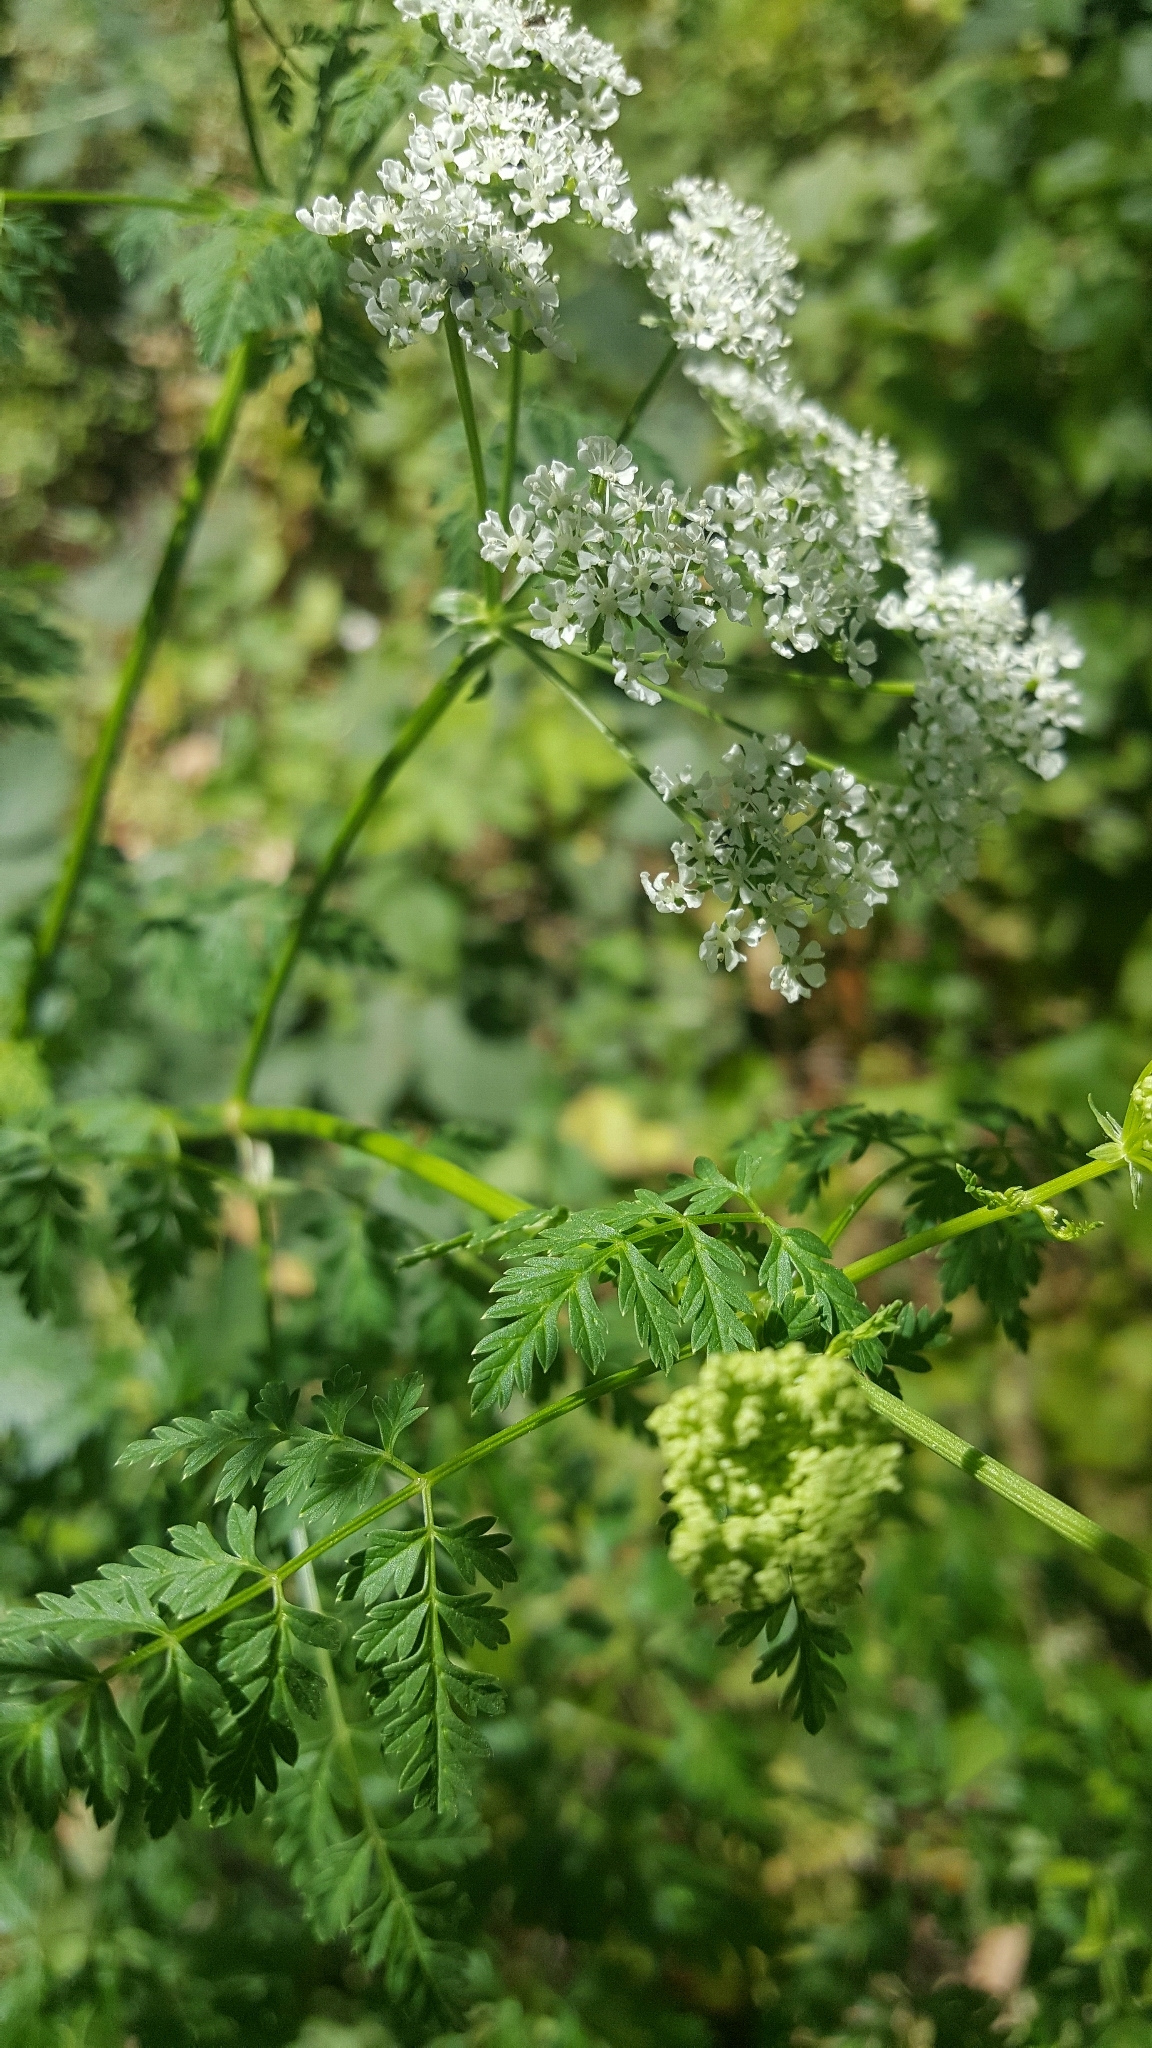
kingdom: Plantae
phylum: Tracheophyta
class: Magnoliopsida
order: Apiales
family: Apiaceae
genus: Conium
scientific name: Conium maculatum
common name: Hemlock
